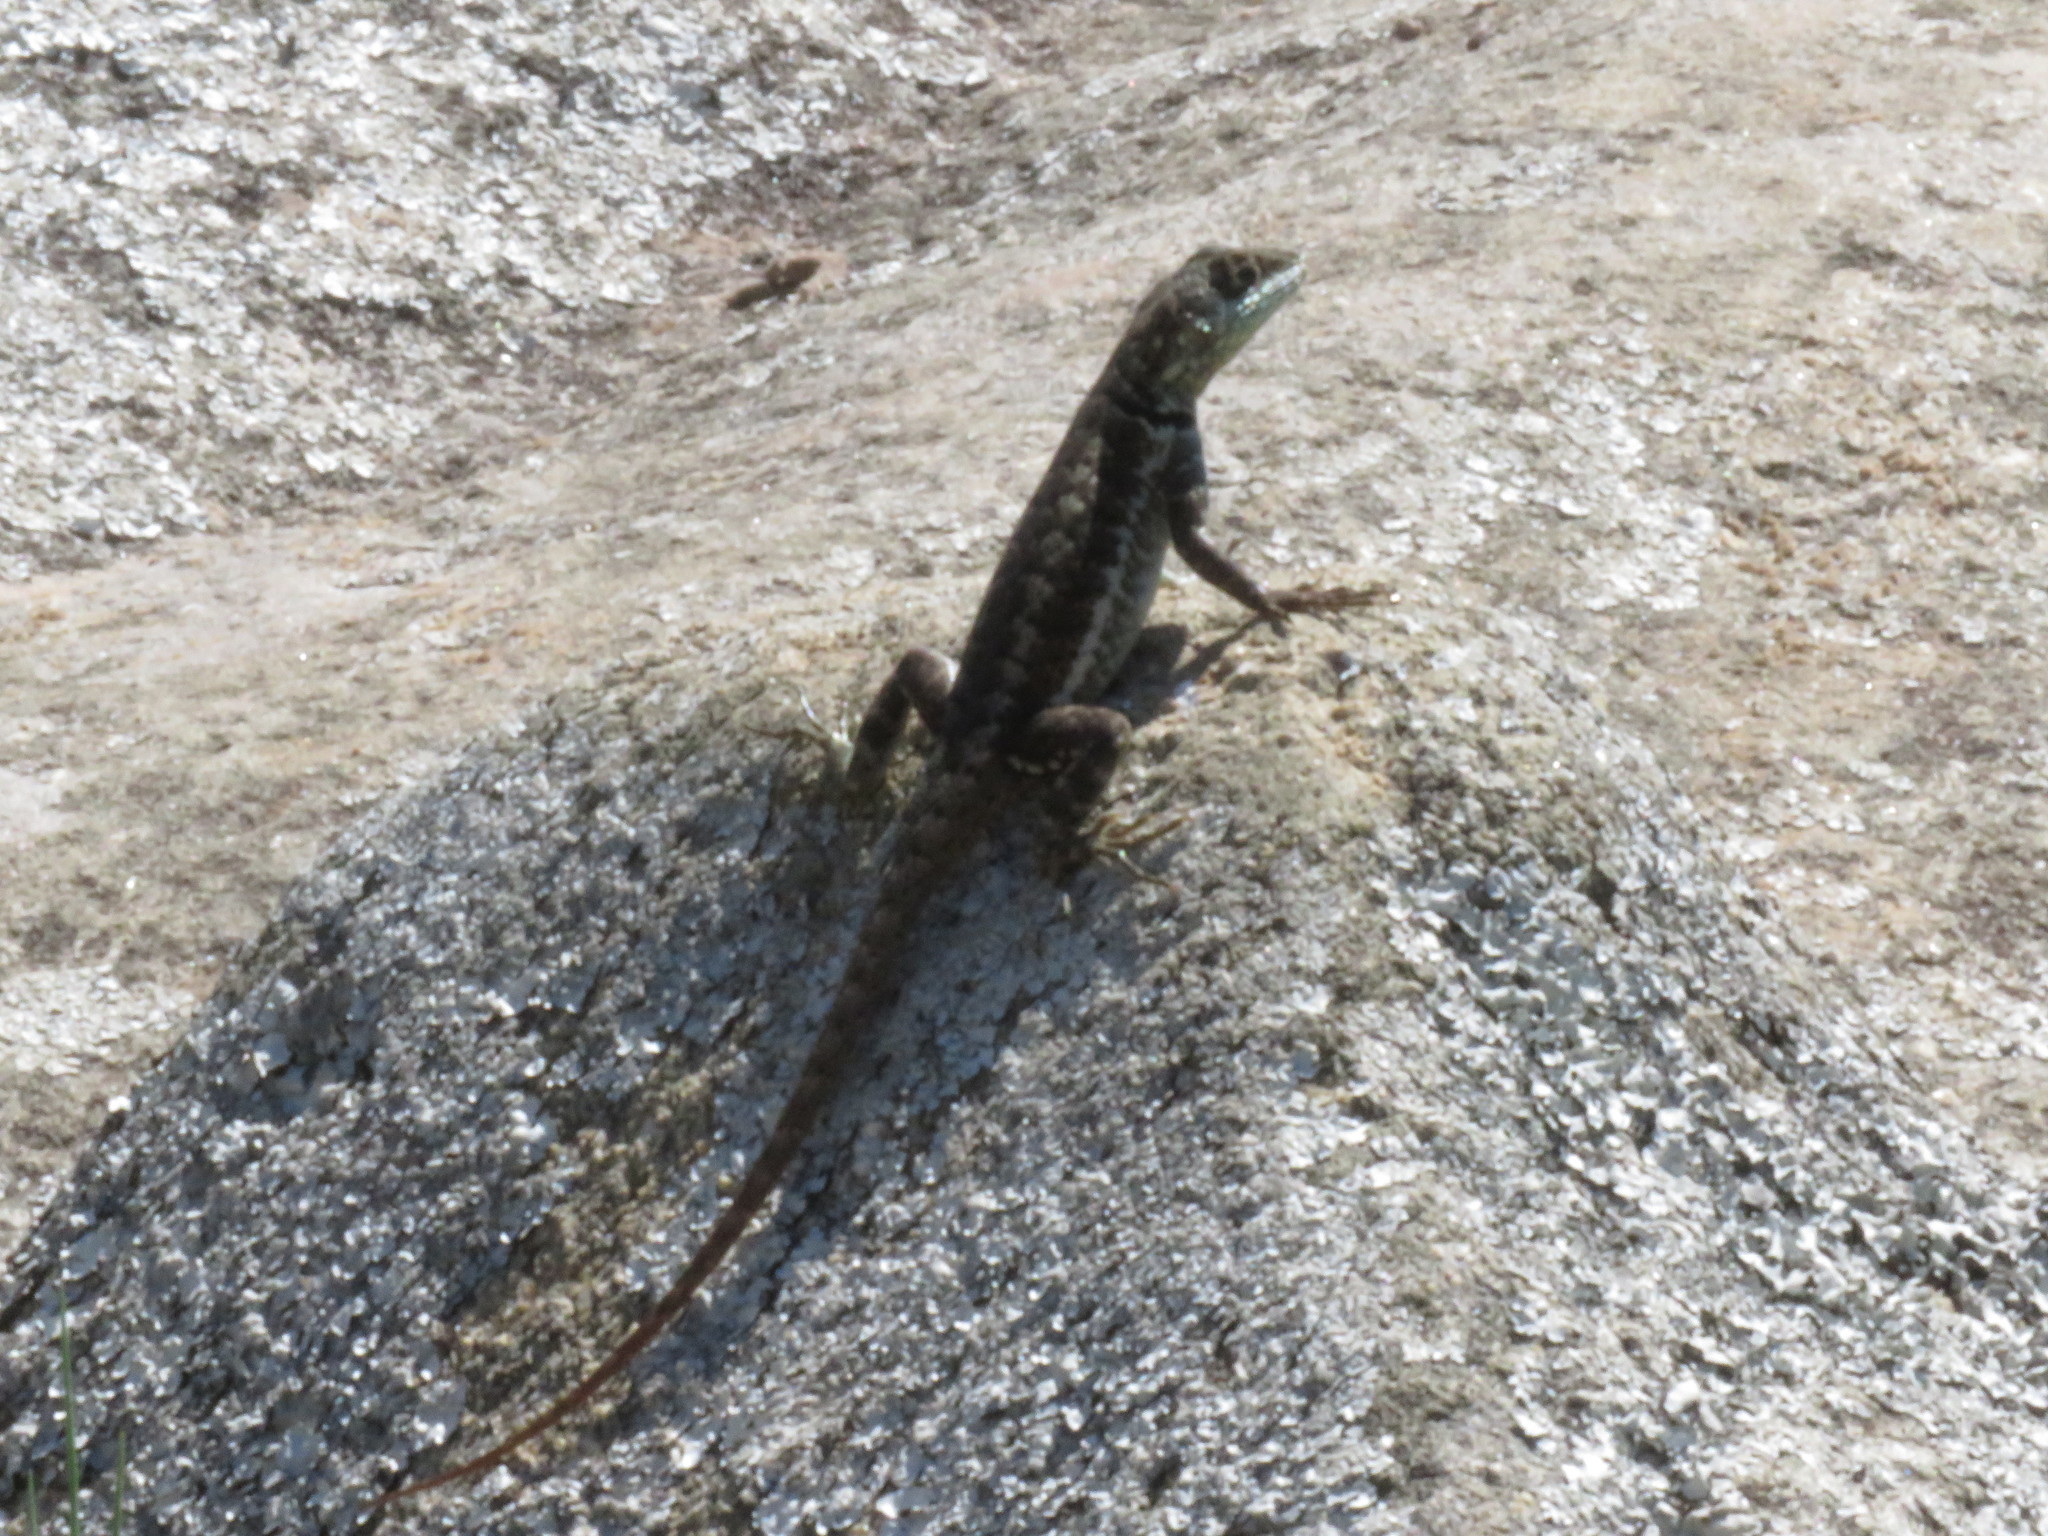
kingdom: Animalia
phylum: Chordata
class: Squamata
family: Tropiduridae
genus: Tropidurus
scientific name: Tropidurus imbituba
